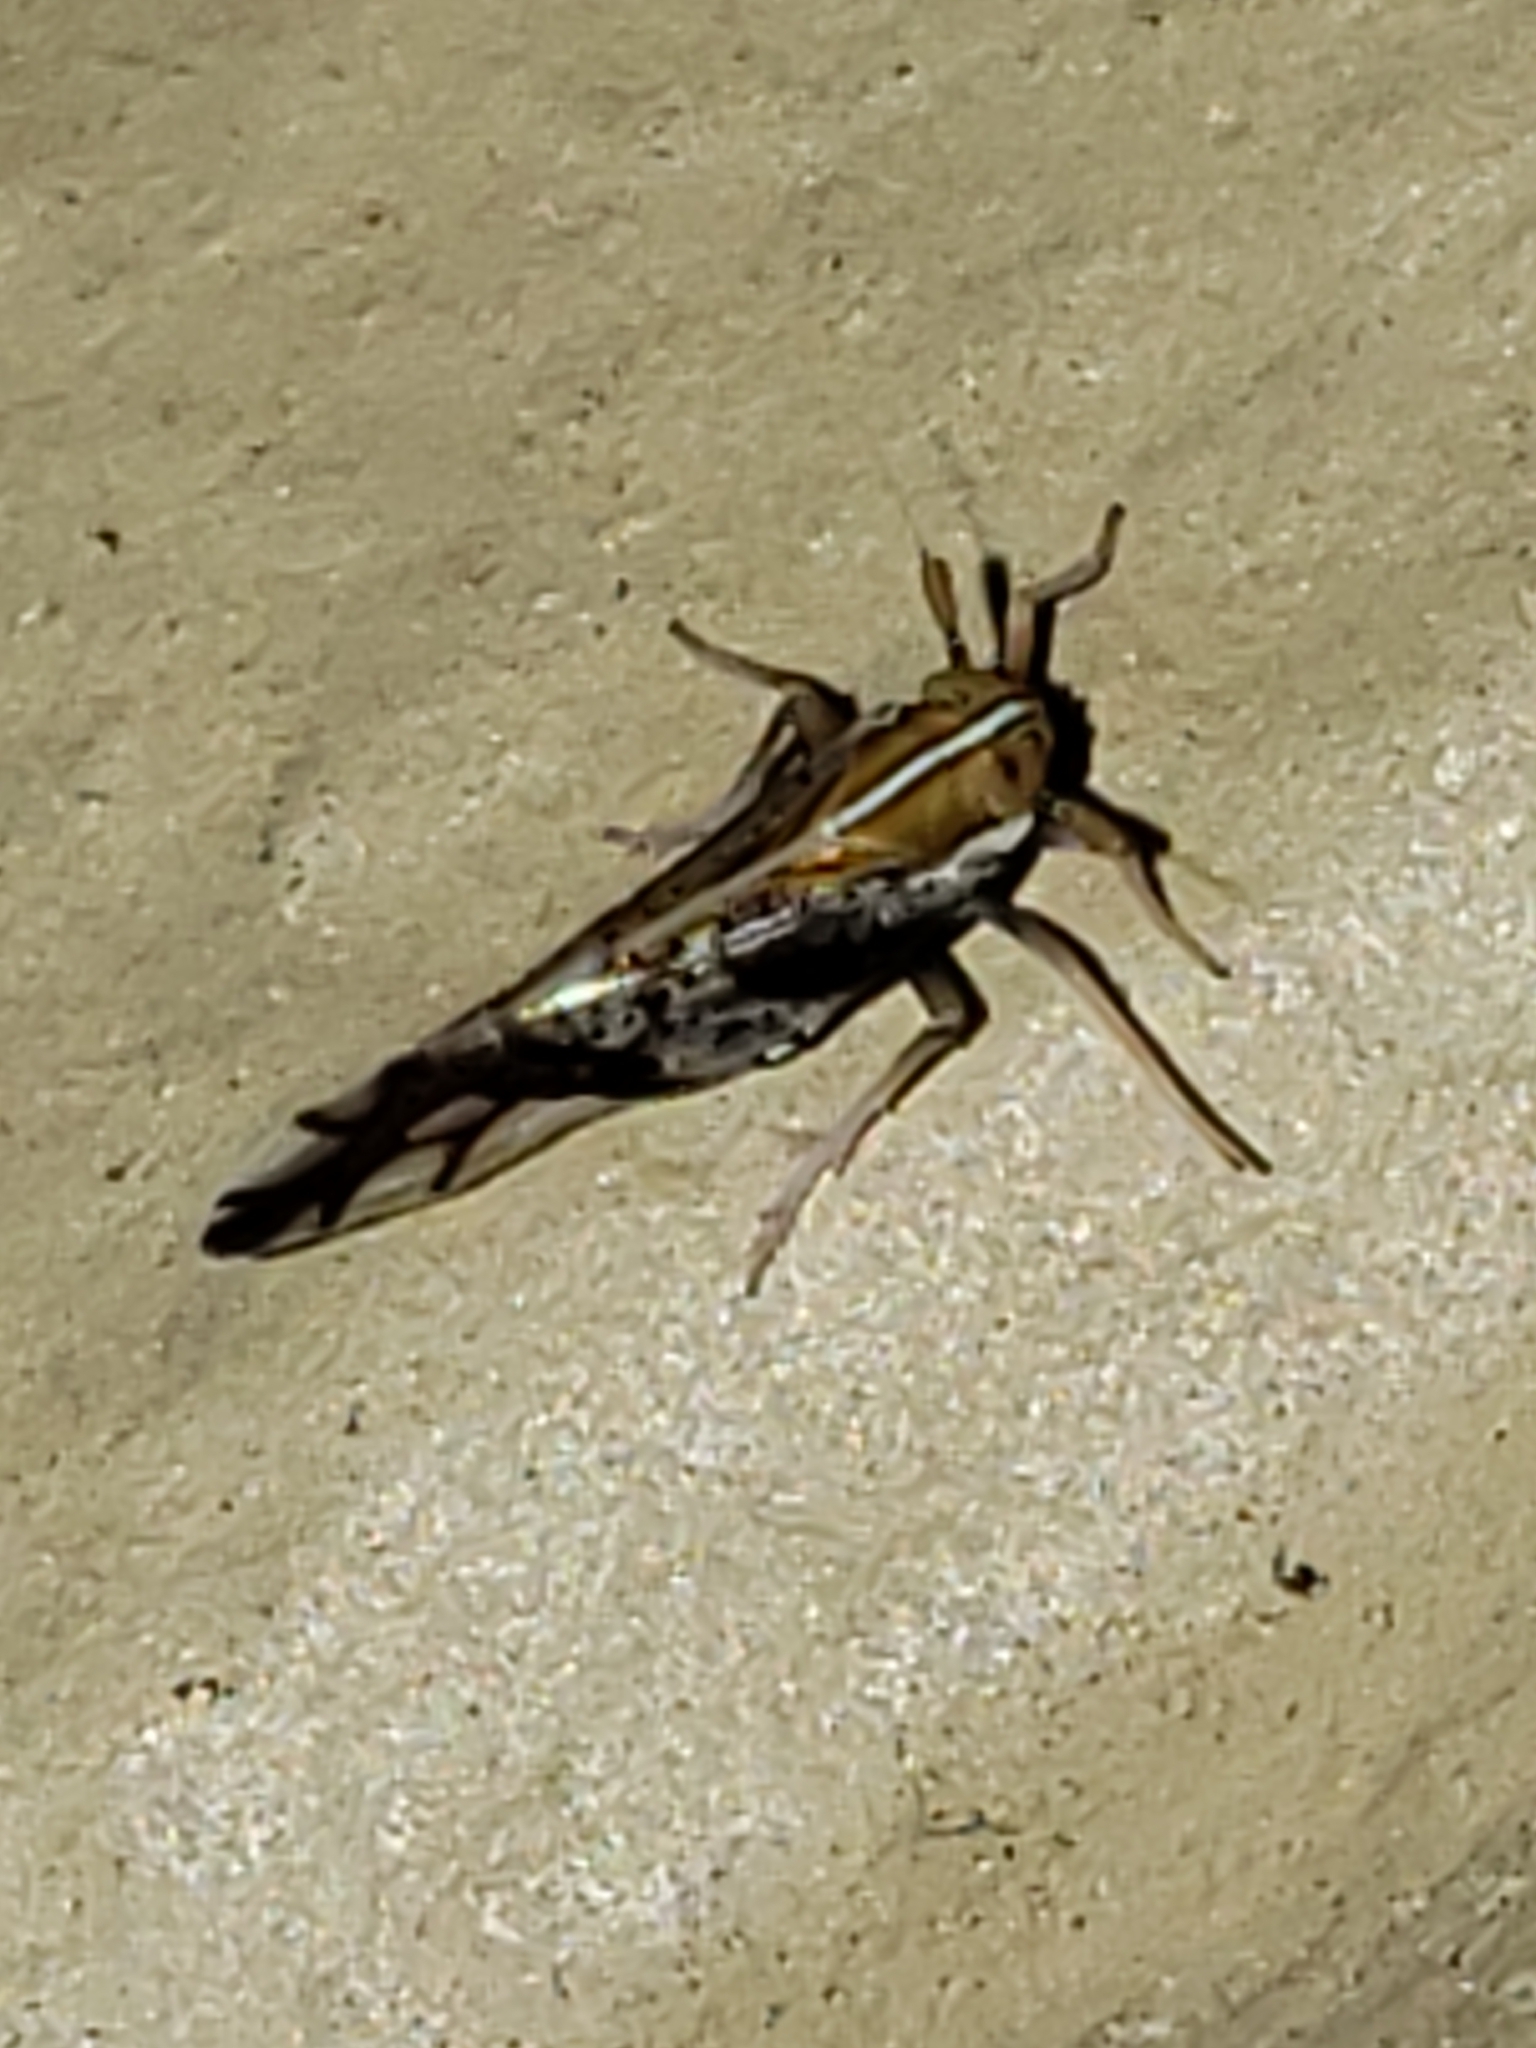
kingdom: Animalia
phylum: Arthropoda
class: Insecta
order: Hemiptera
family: Delphacidae
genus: Liburniella
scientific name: Liburniella ornata
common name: Ornate planthopper
